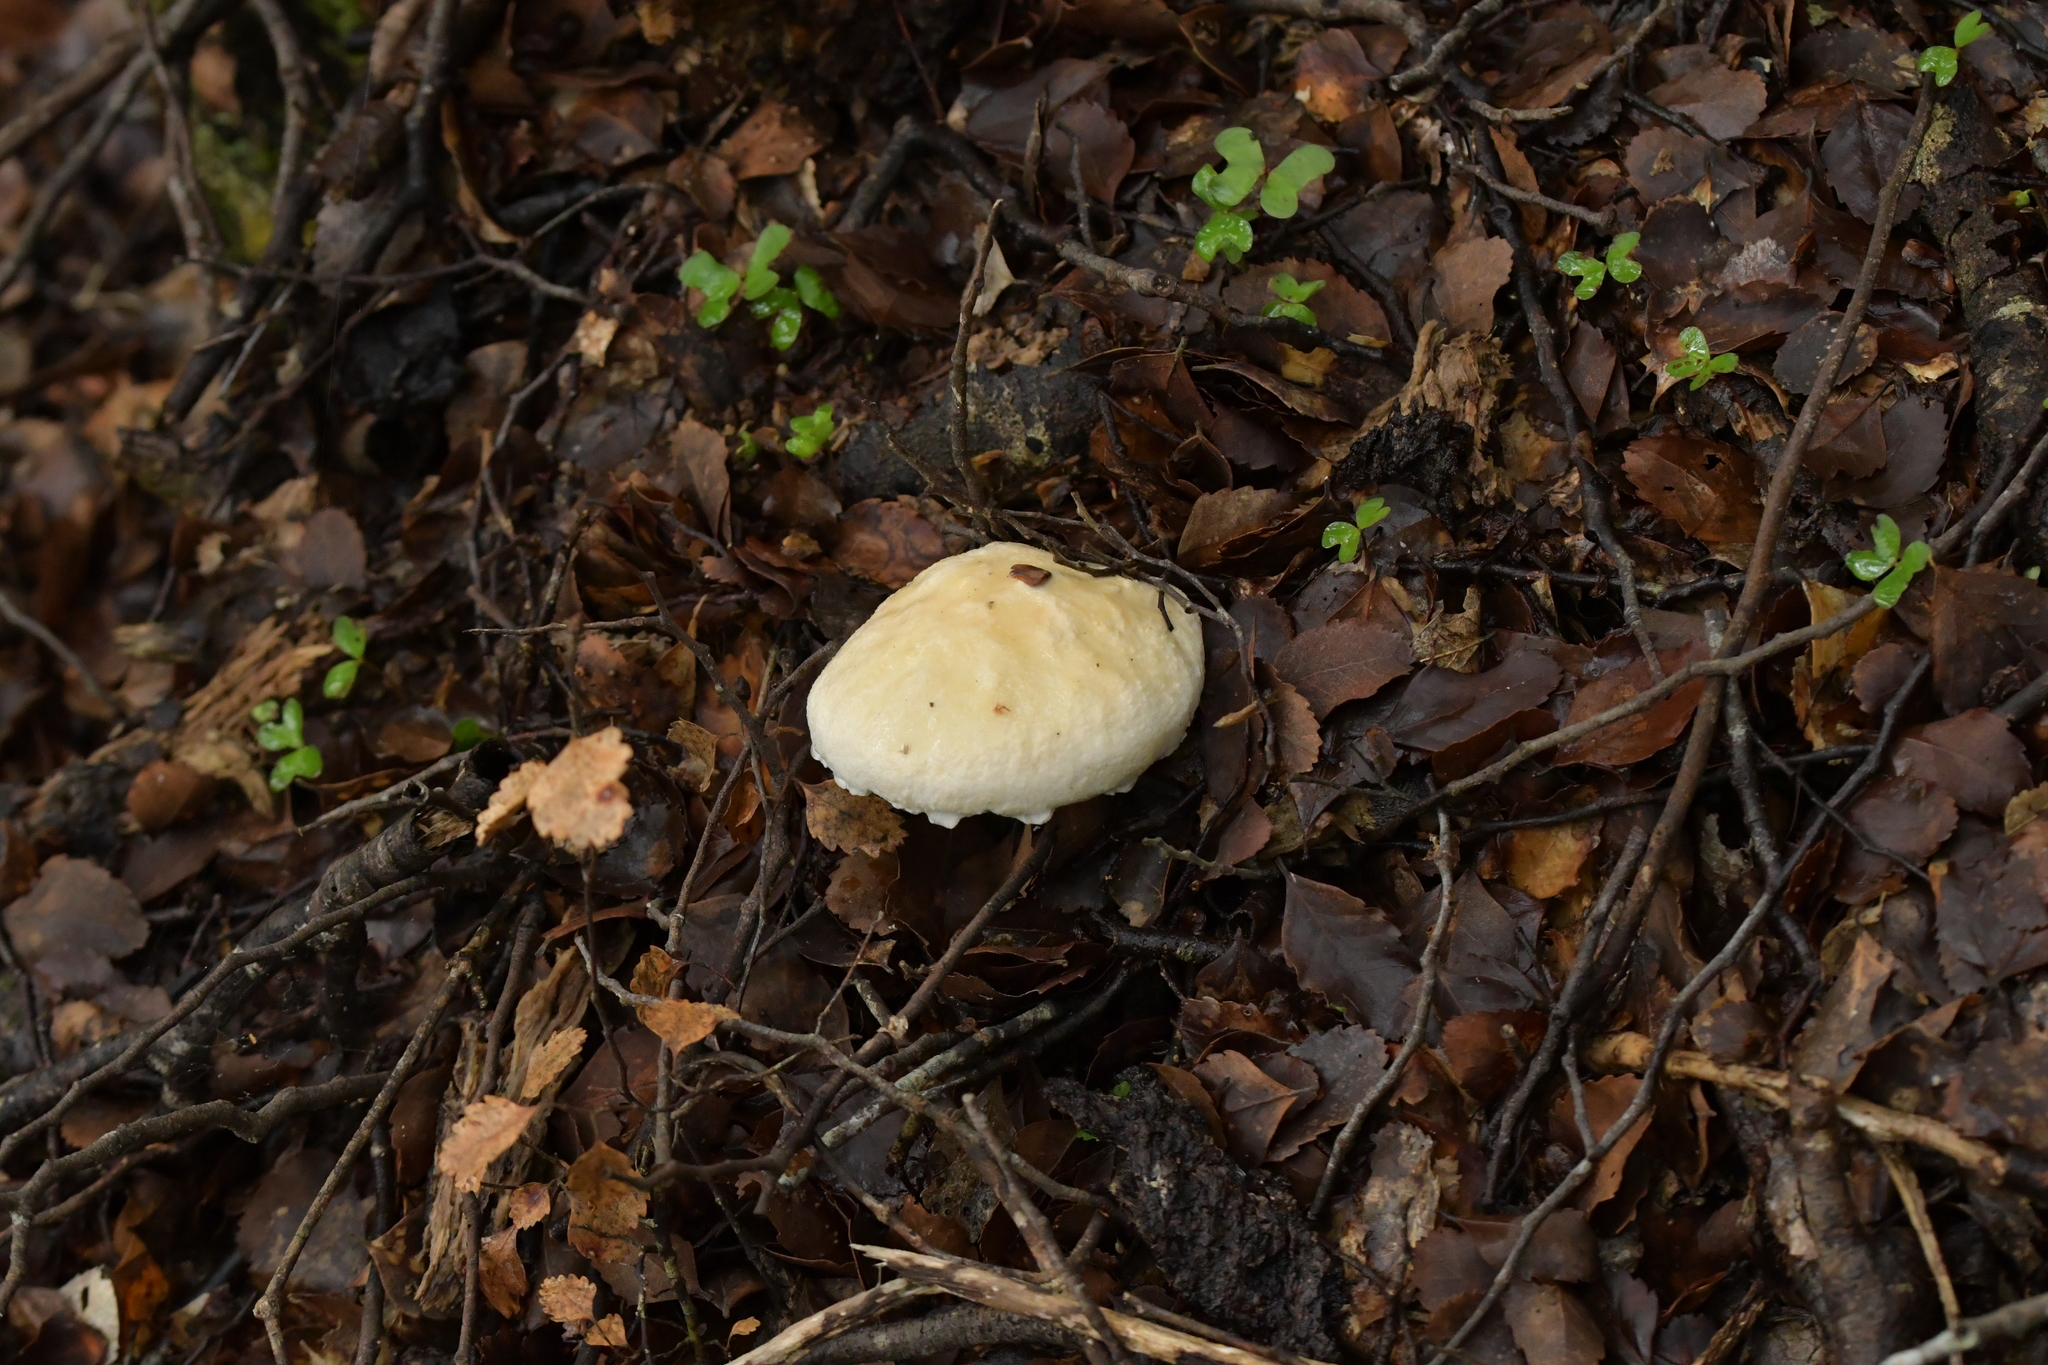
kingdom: Fungi
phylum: Basidiomycota
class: Agaricomycetes
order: Boletales
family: Boletaceae
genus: Fistulinella
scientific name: Fistulinella nivea
